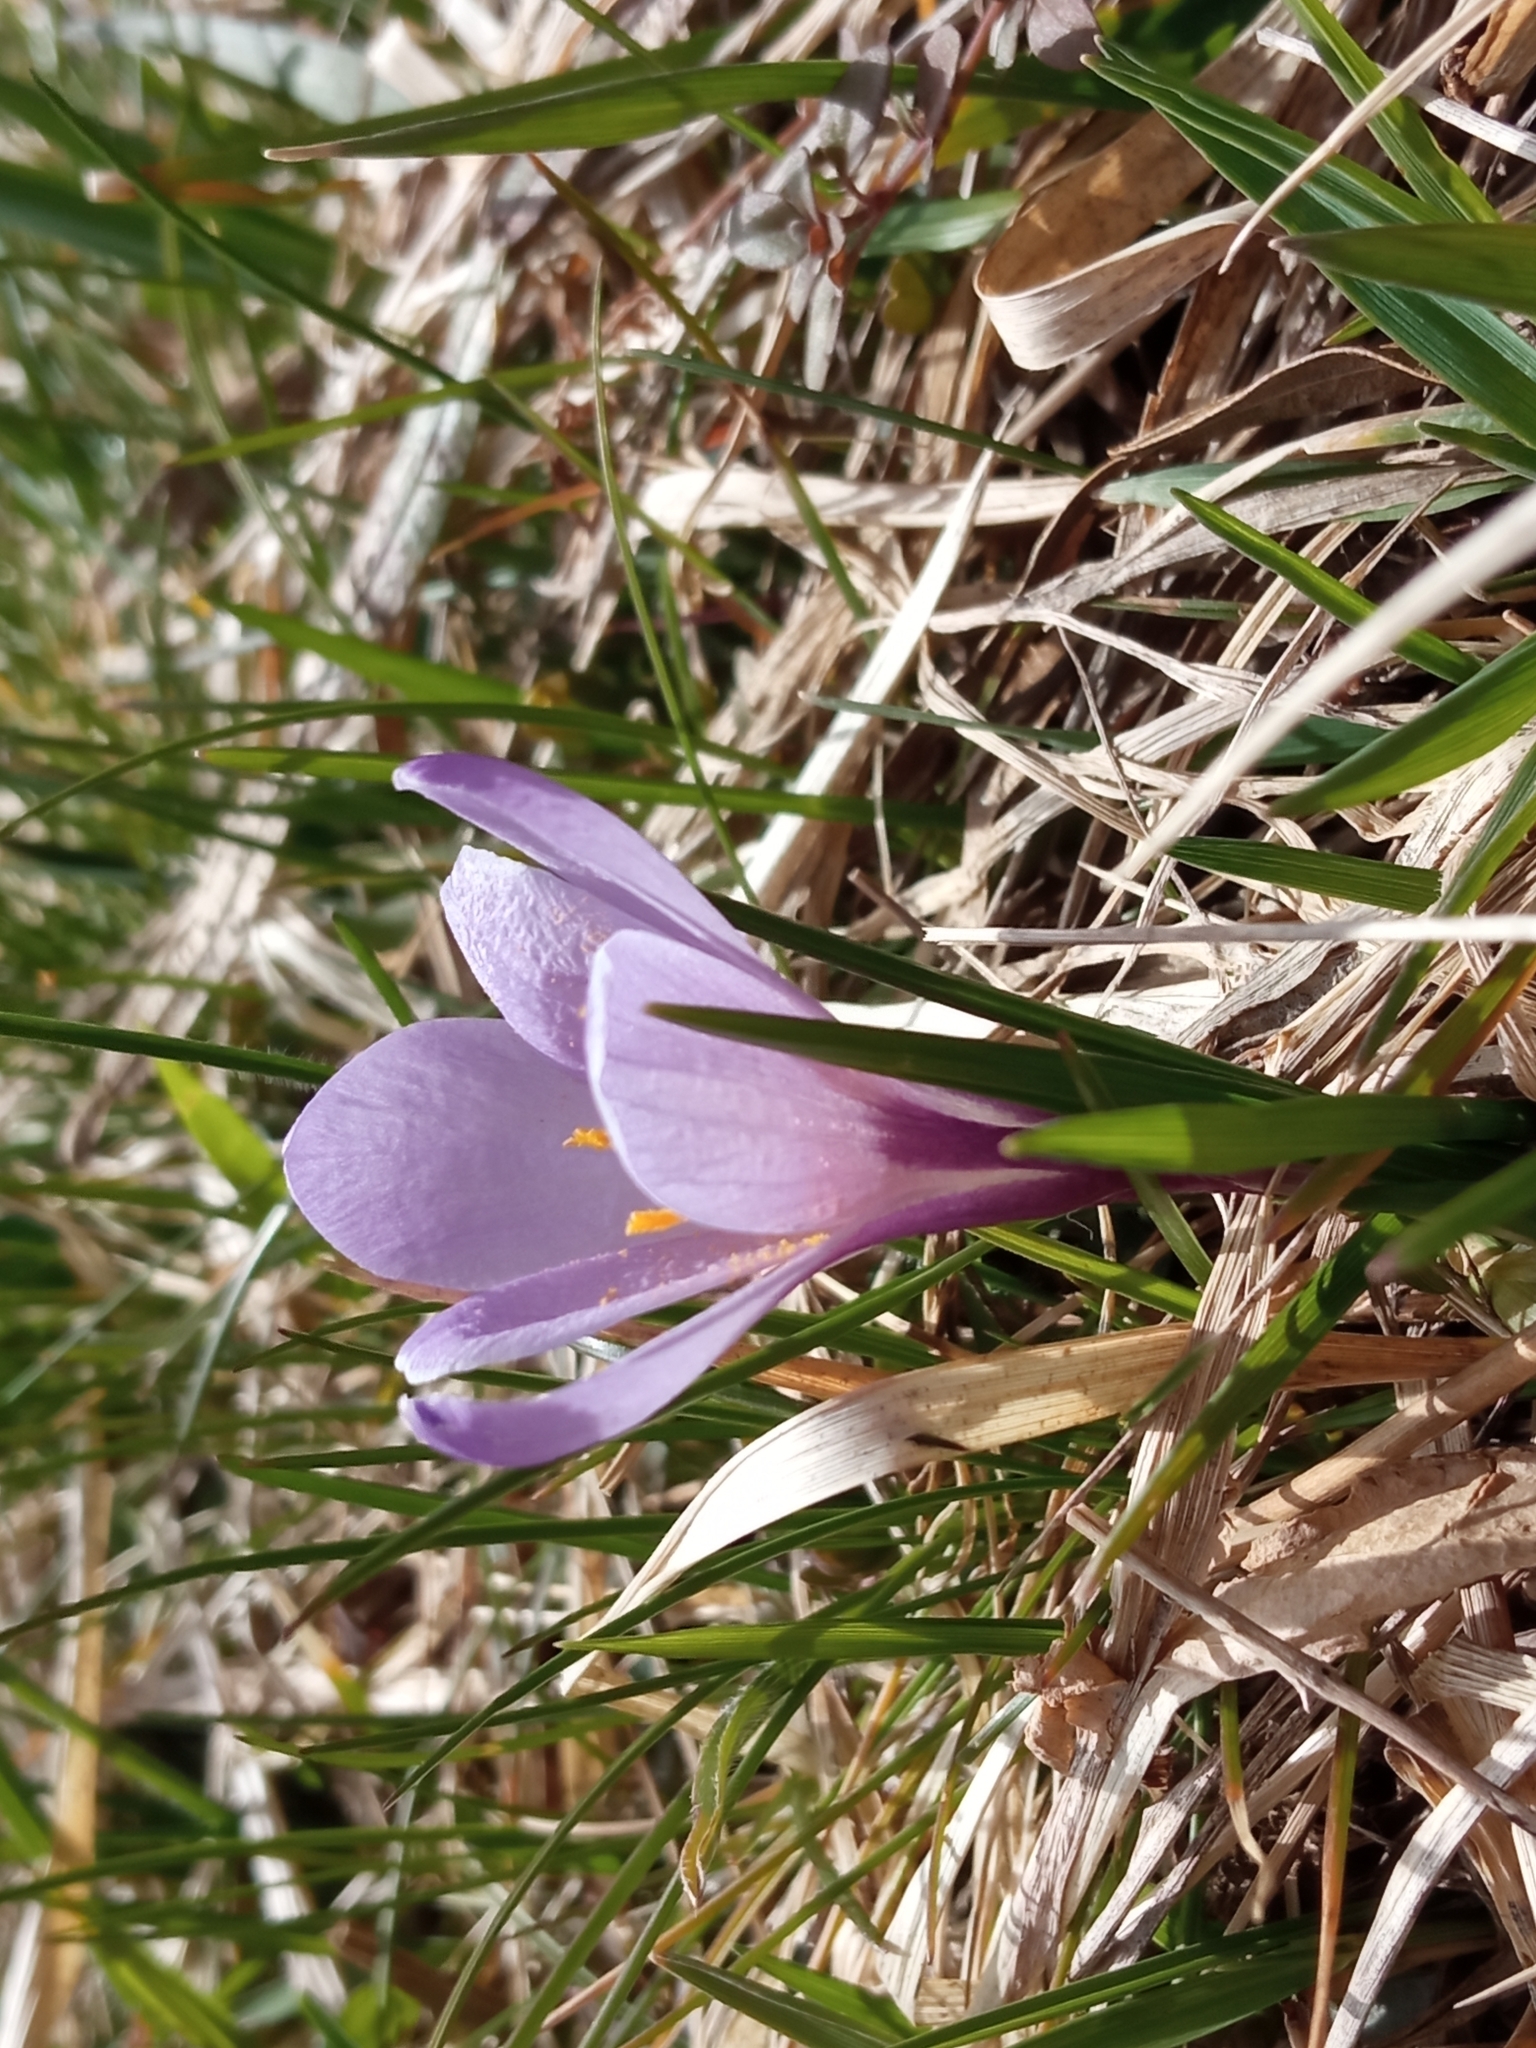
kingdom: Plantae
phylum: Tracheophyta
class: Liliopsida
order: Asparagales
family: Iridaceae
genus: Crocus
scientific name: Crocus vernus
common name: Spring crocus
